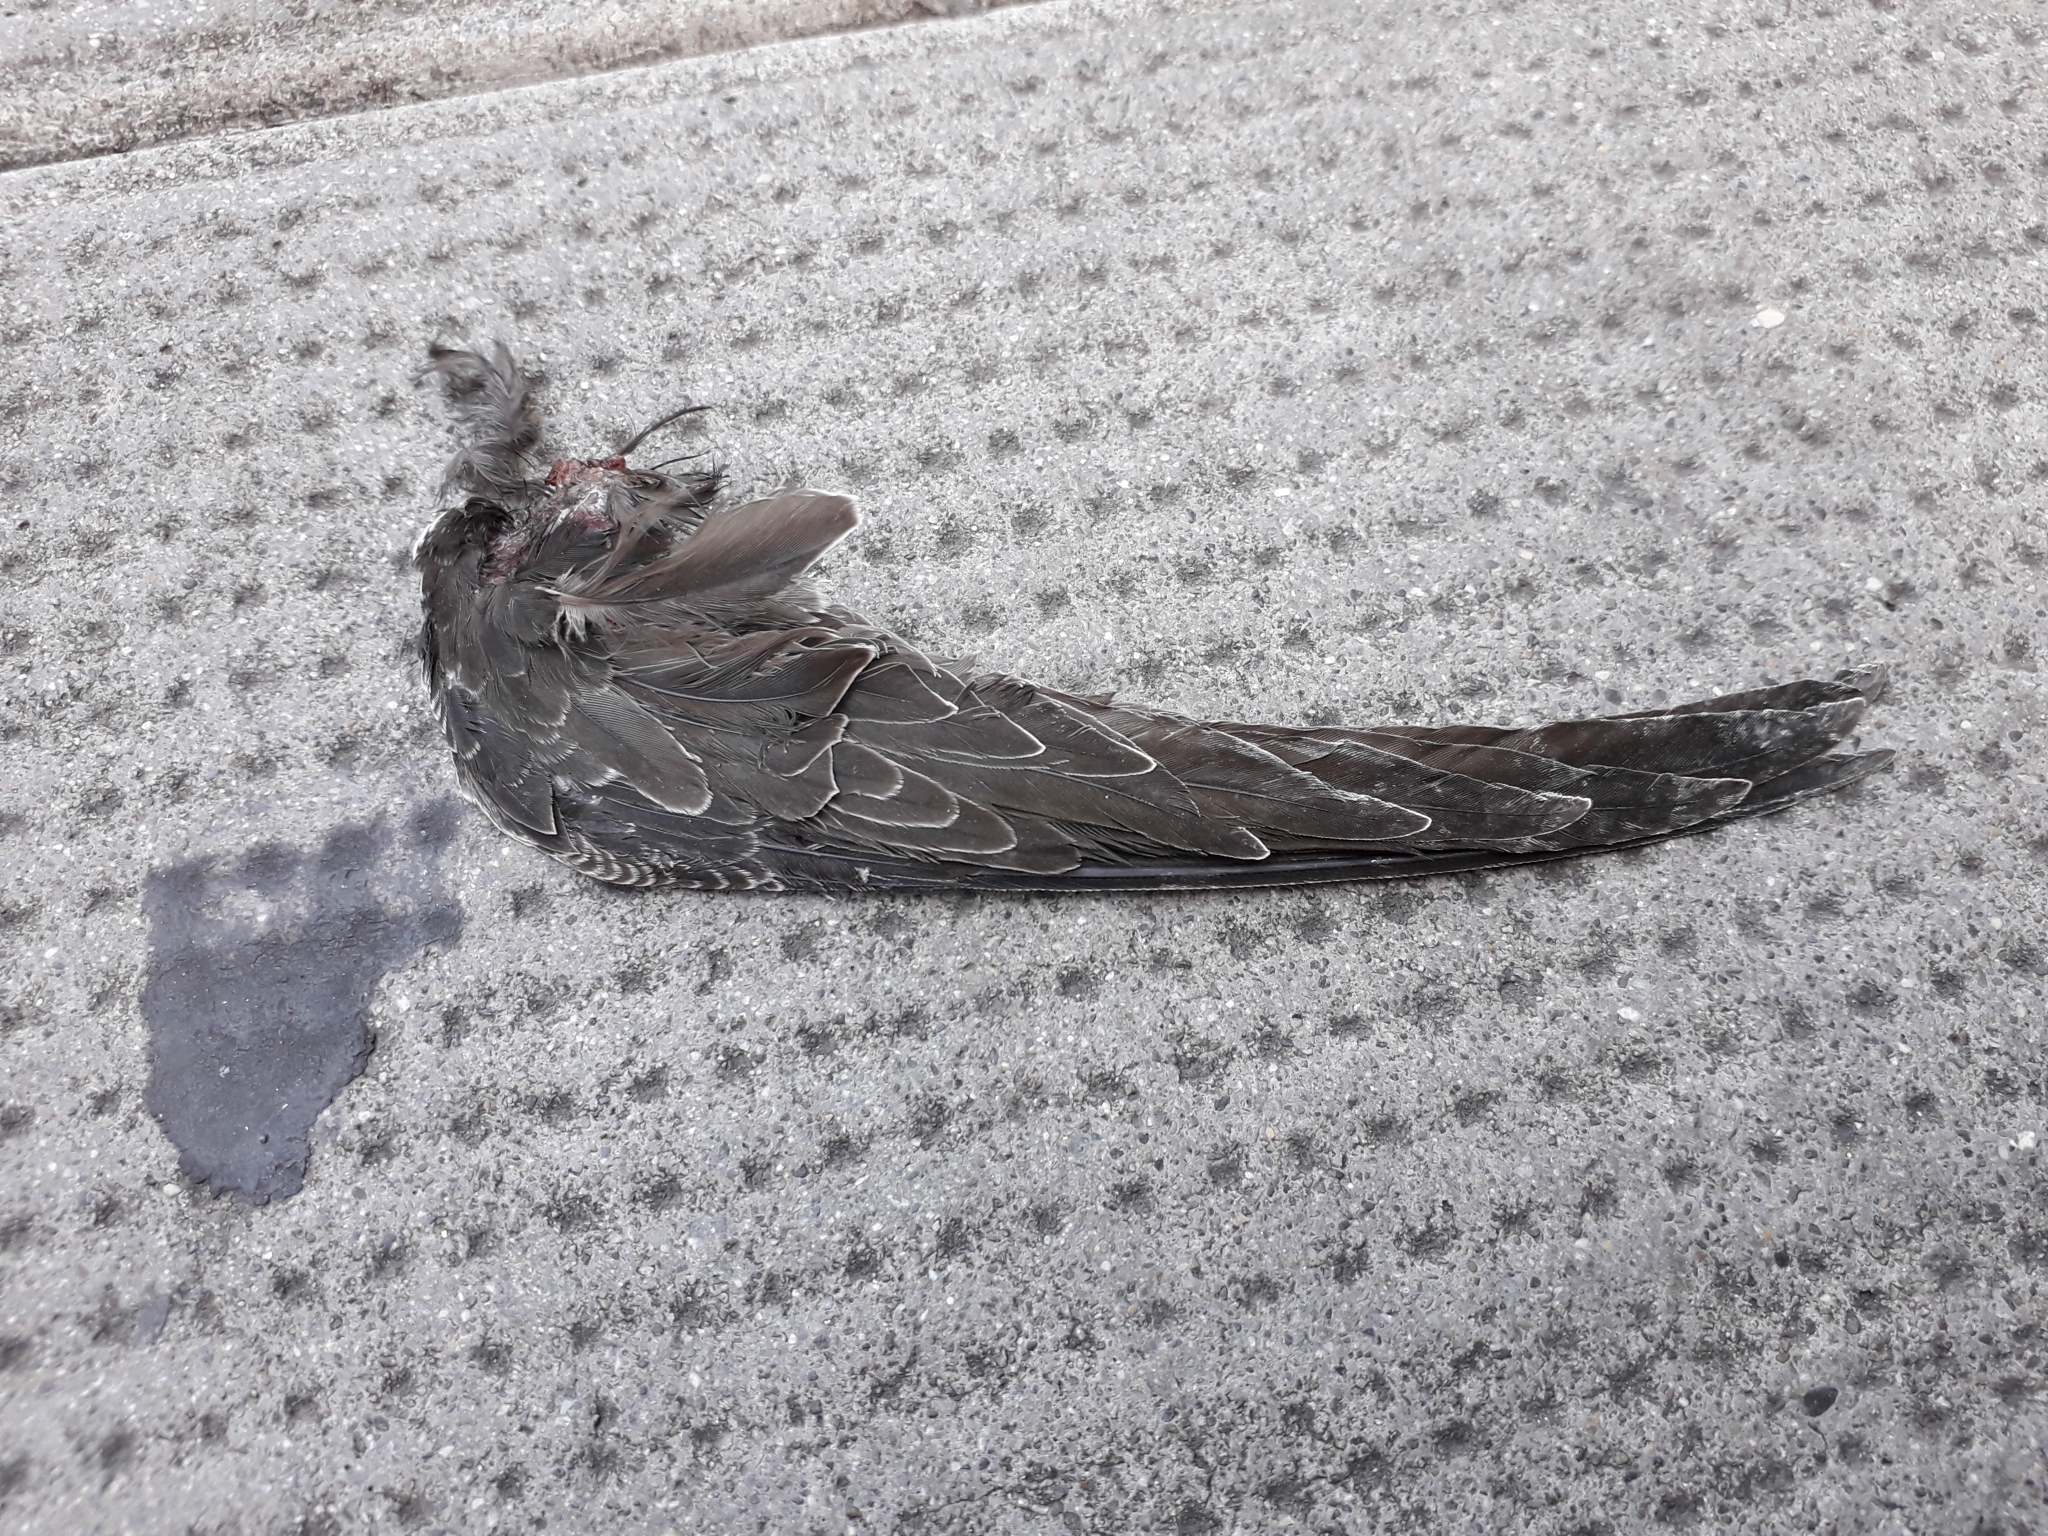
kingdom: Animalia
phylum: Chordata
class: Aves
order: Apodiformes
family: Apodidae
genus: Apus
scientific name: Apus apus
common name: Common swift
